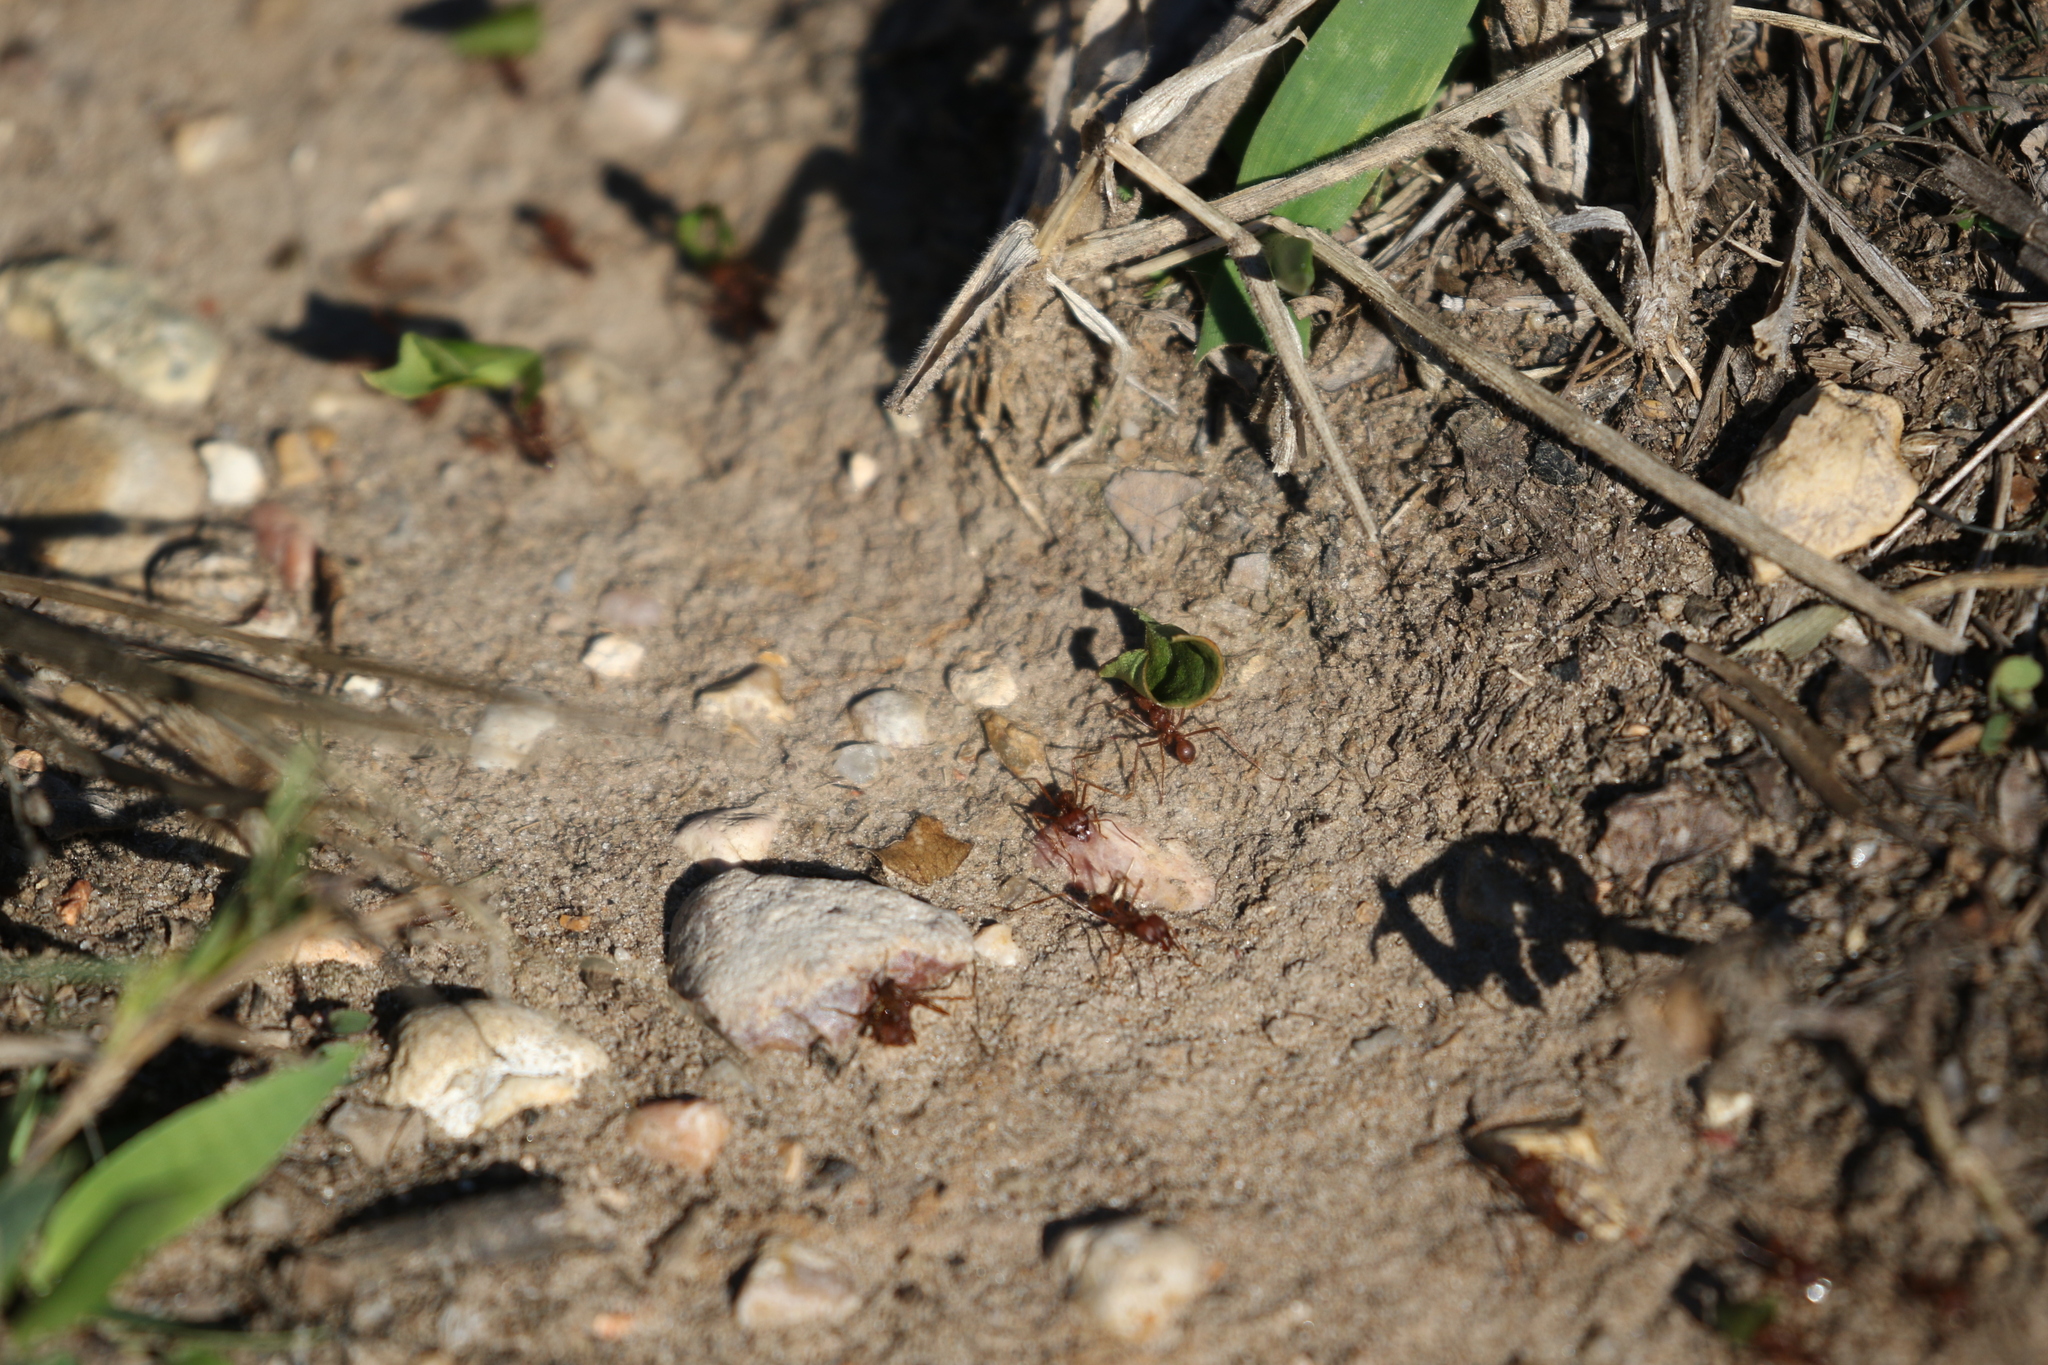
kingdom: Animalia
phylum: Arthropoda
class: Insecta
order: Hymenoptera
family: Formicidae
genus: Atta
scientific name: Atta texana
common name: Texas leafcutting ant
